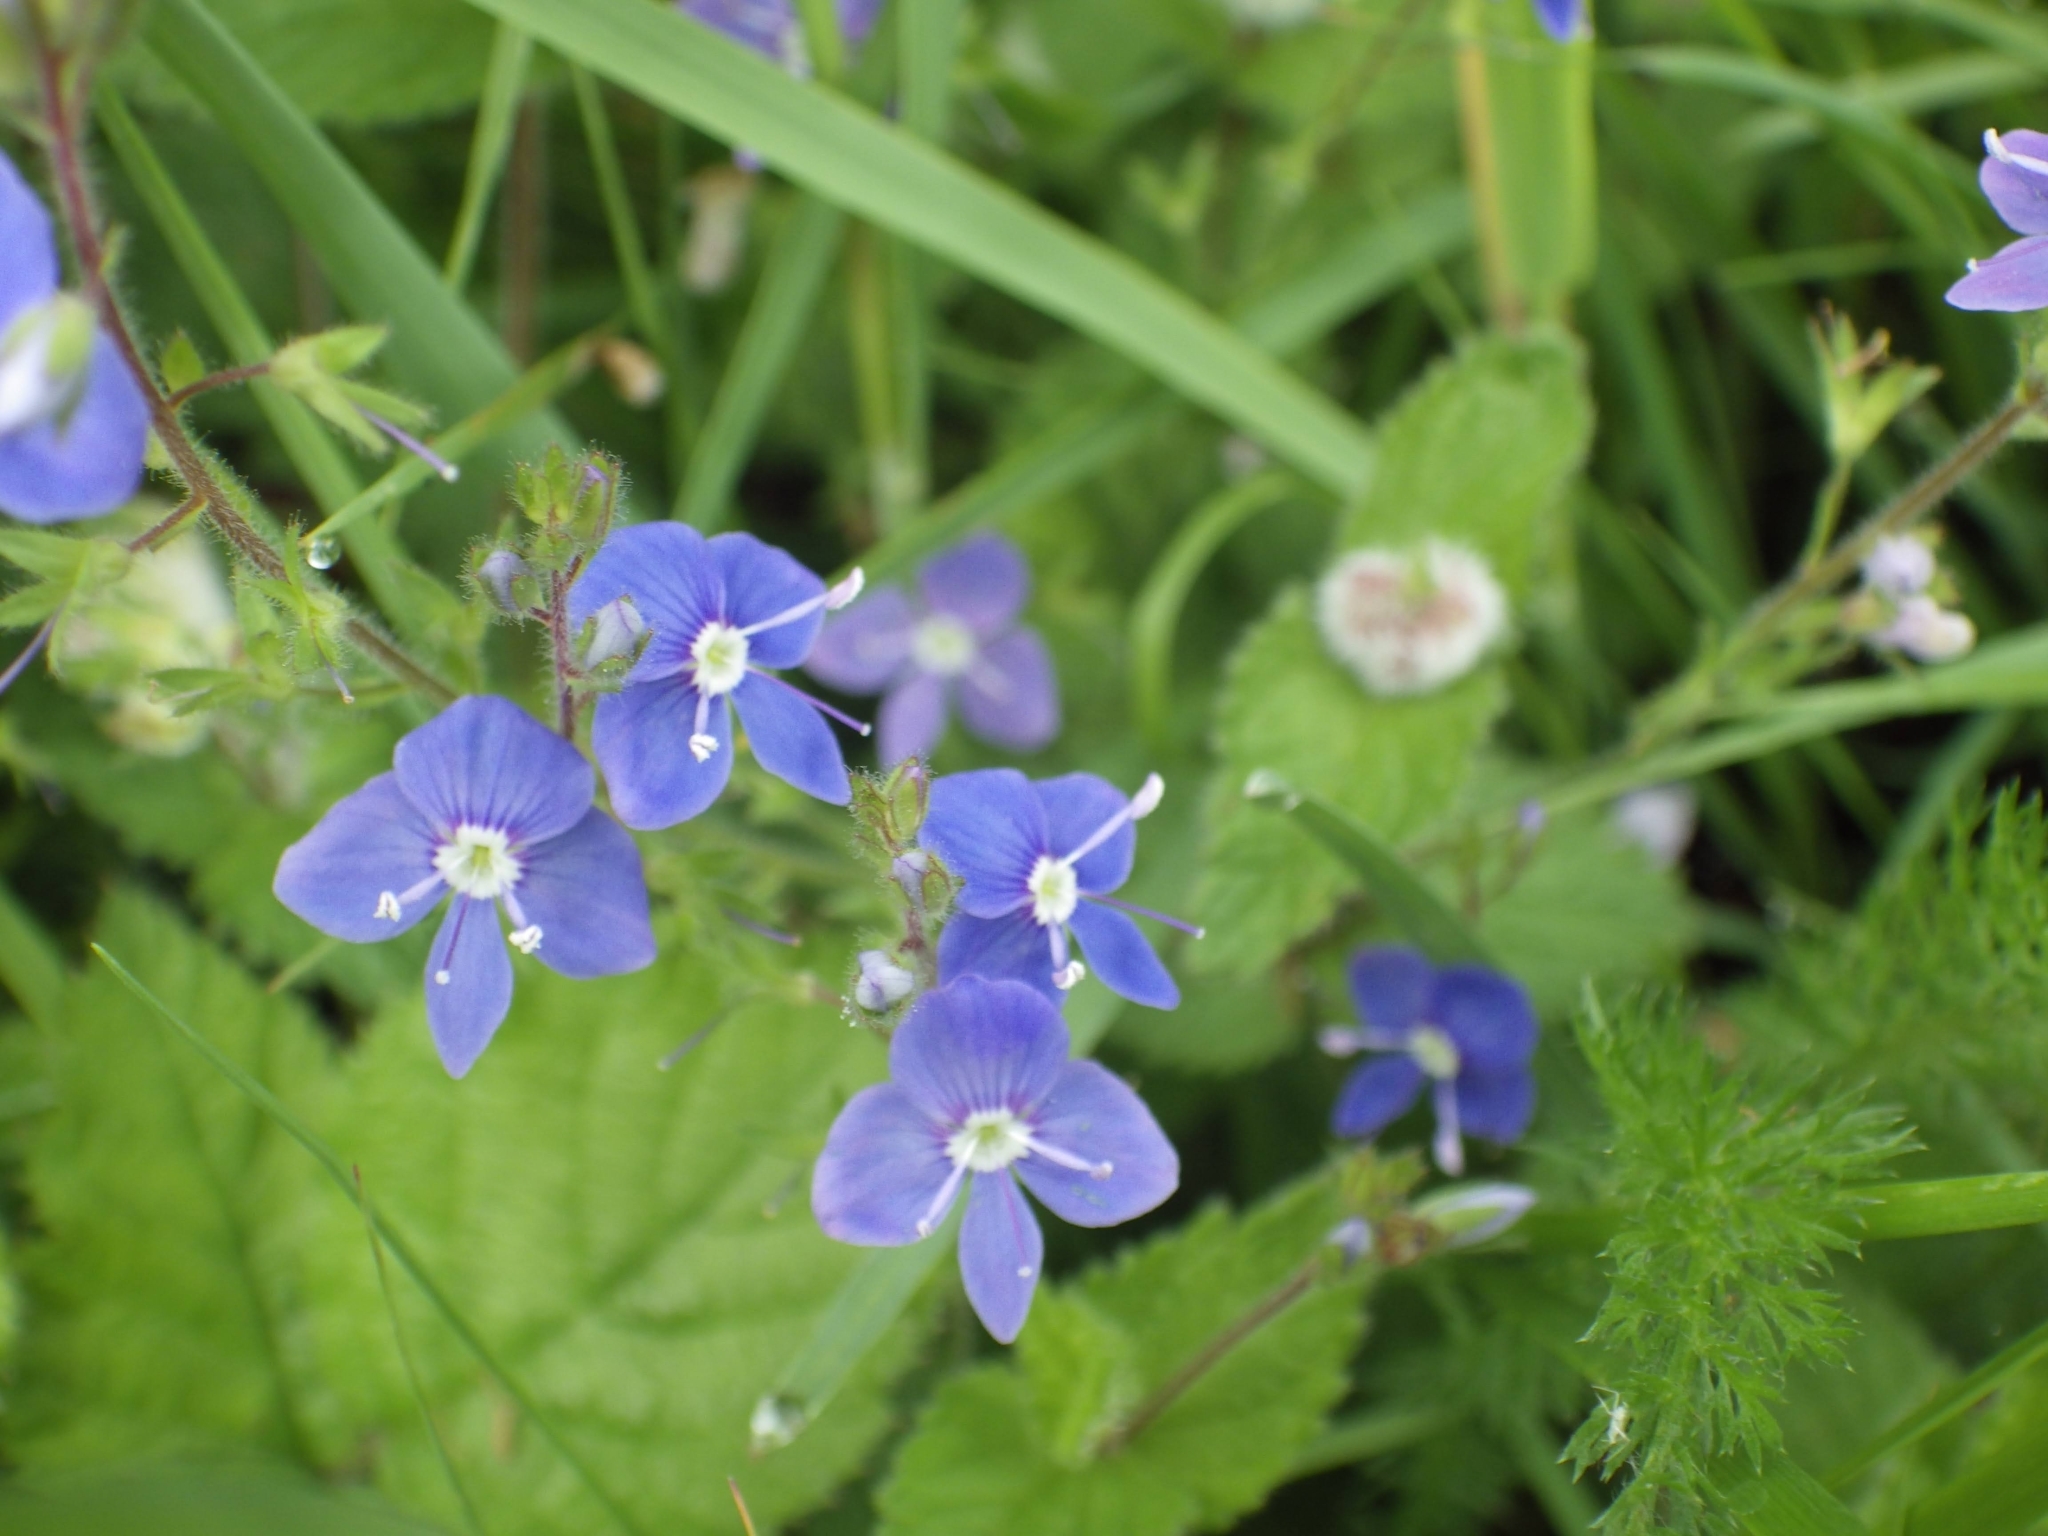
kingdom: Plantae
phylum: Tracheophyta
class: Magnoliopsida
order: Lamiales
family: Plantaginaceae
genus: Veronica
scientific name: Veronica chamaedrys
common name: Germander speedwell
